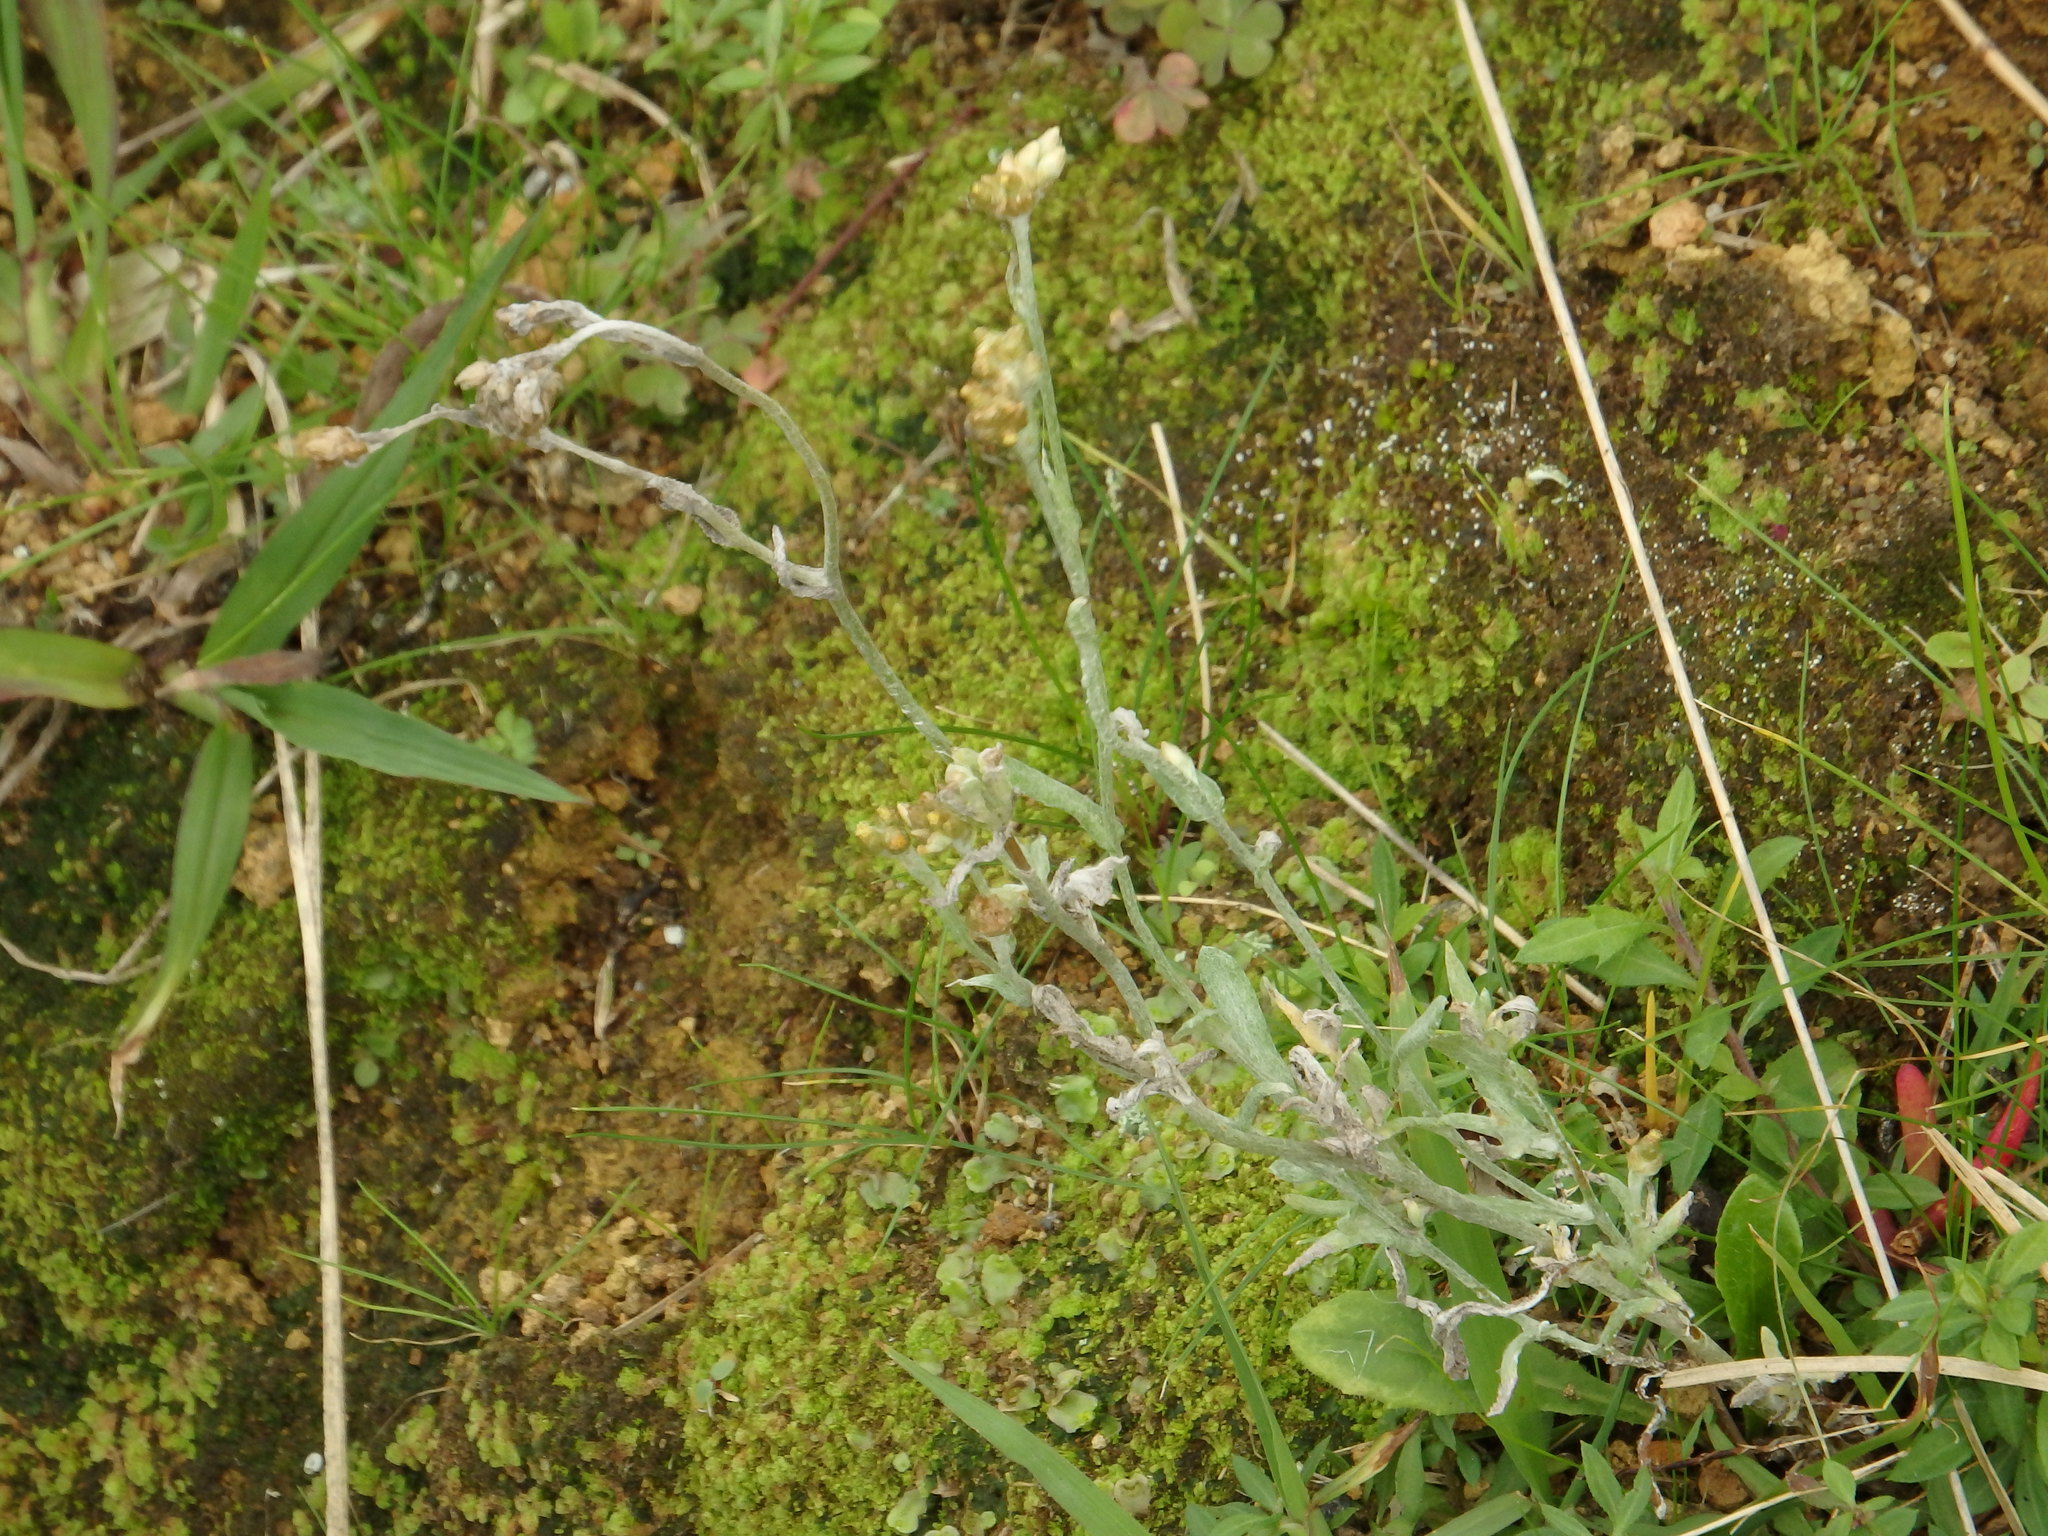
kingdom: Plantae
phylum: Tracheophyta
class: Magnoliopsida
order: Asterales
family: Asteraceae
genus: Helichrysum
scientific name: Helichrysum luteoalbum
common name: Daisy
